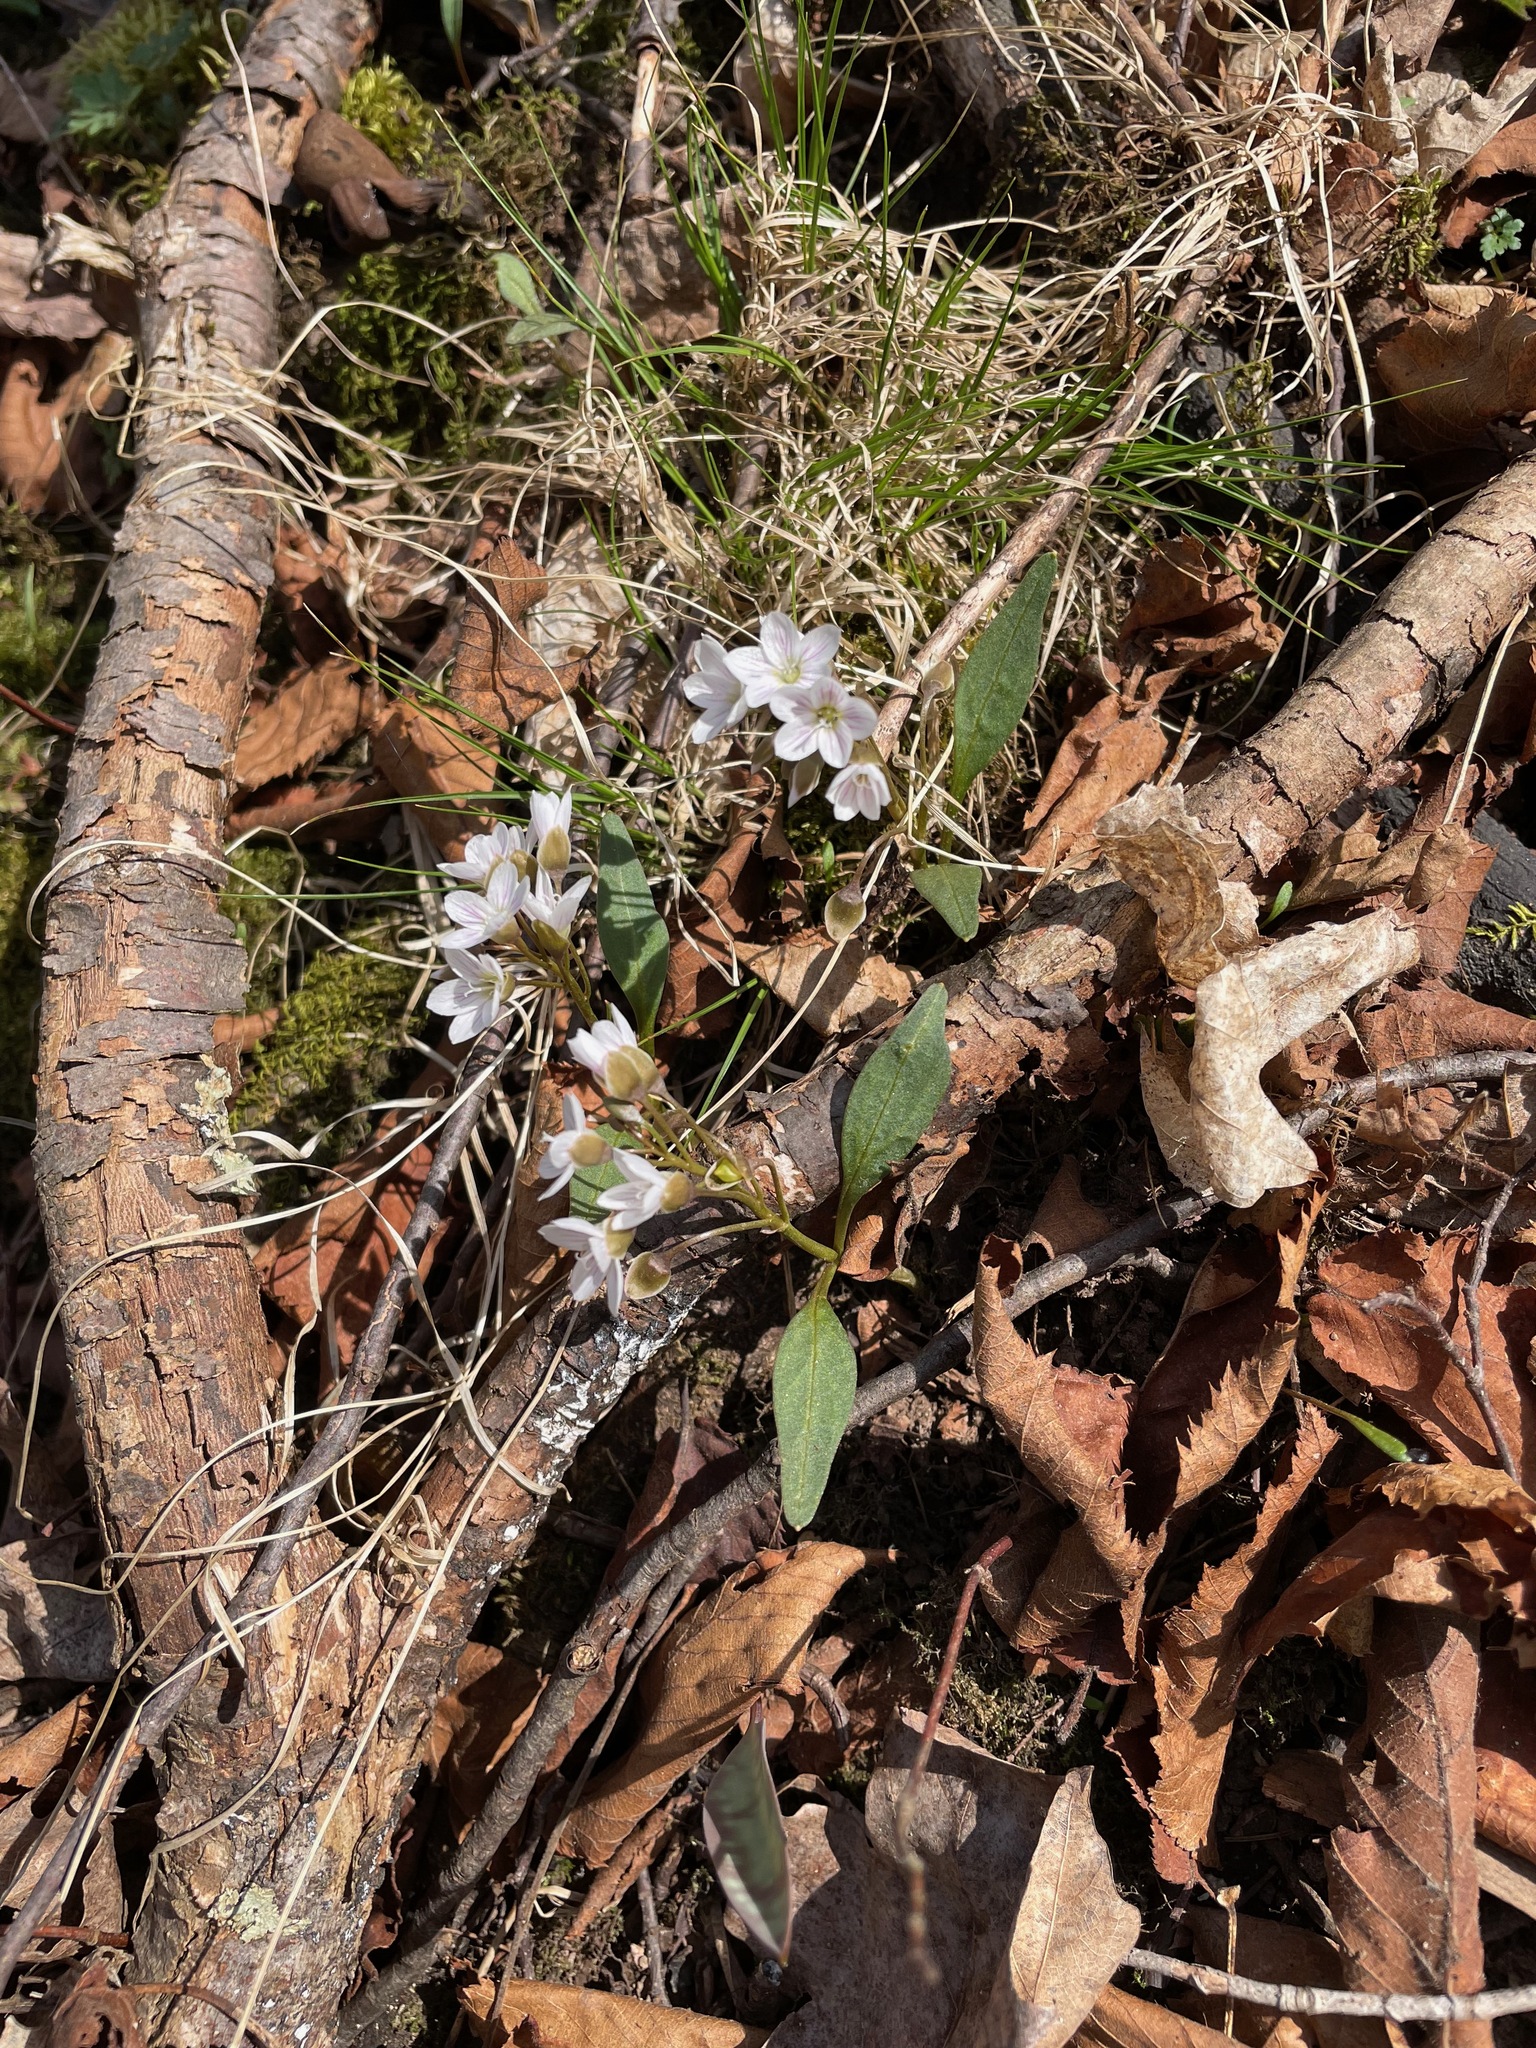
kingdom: Plantae
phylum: Tracheophyta
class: Magnoliopsida
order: Caryophyllales
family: Montiaceae
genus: Claytonia
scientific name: Claytonia caroliniana
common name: Carolina spring beauty
